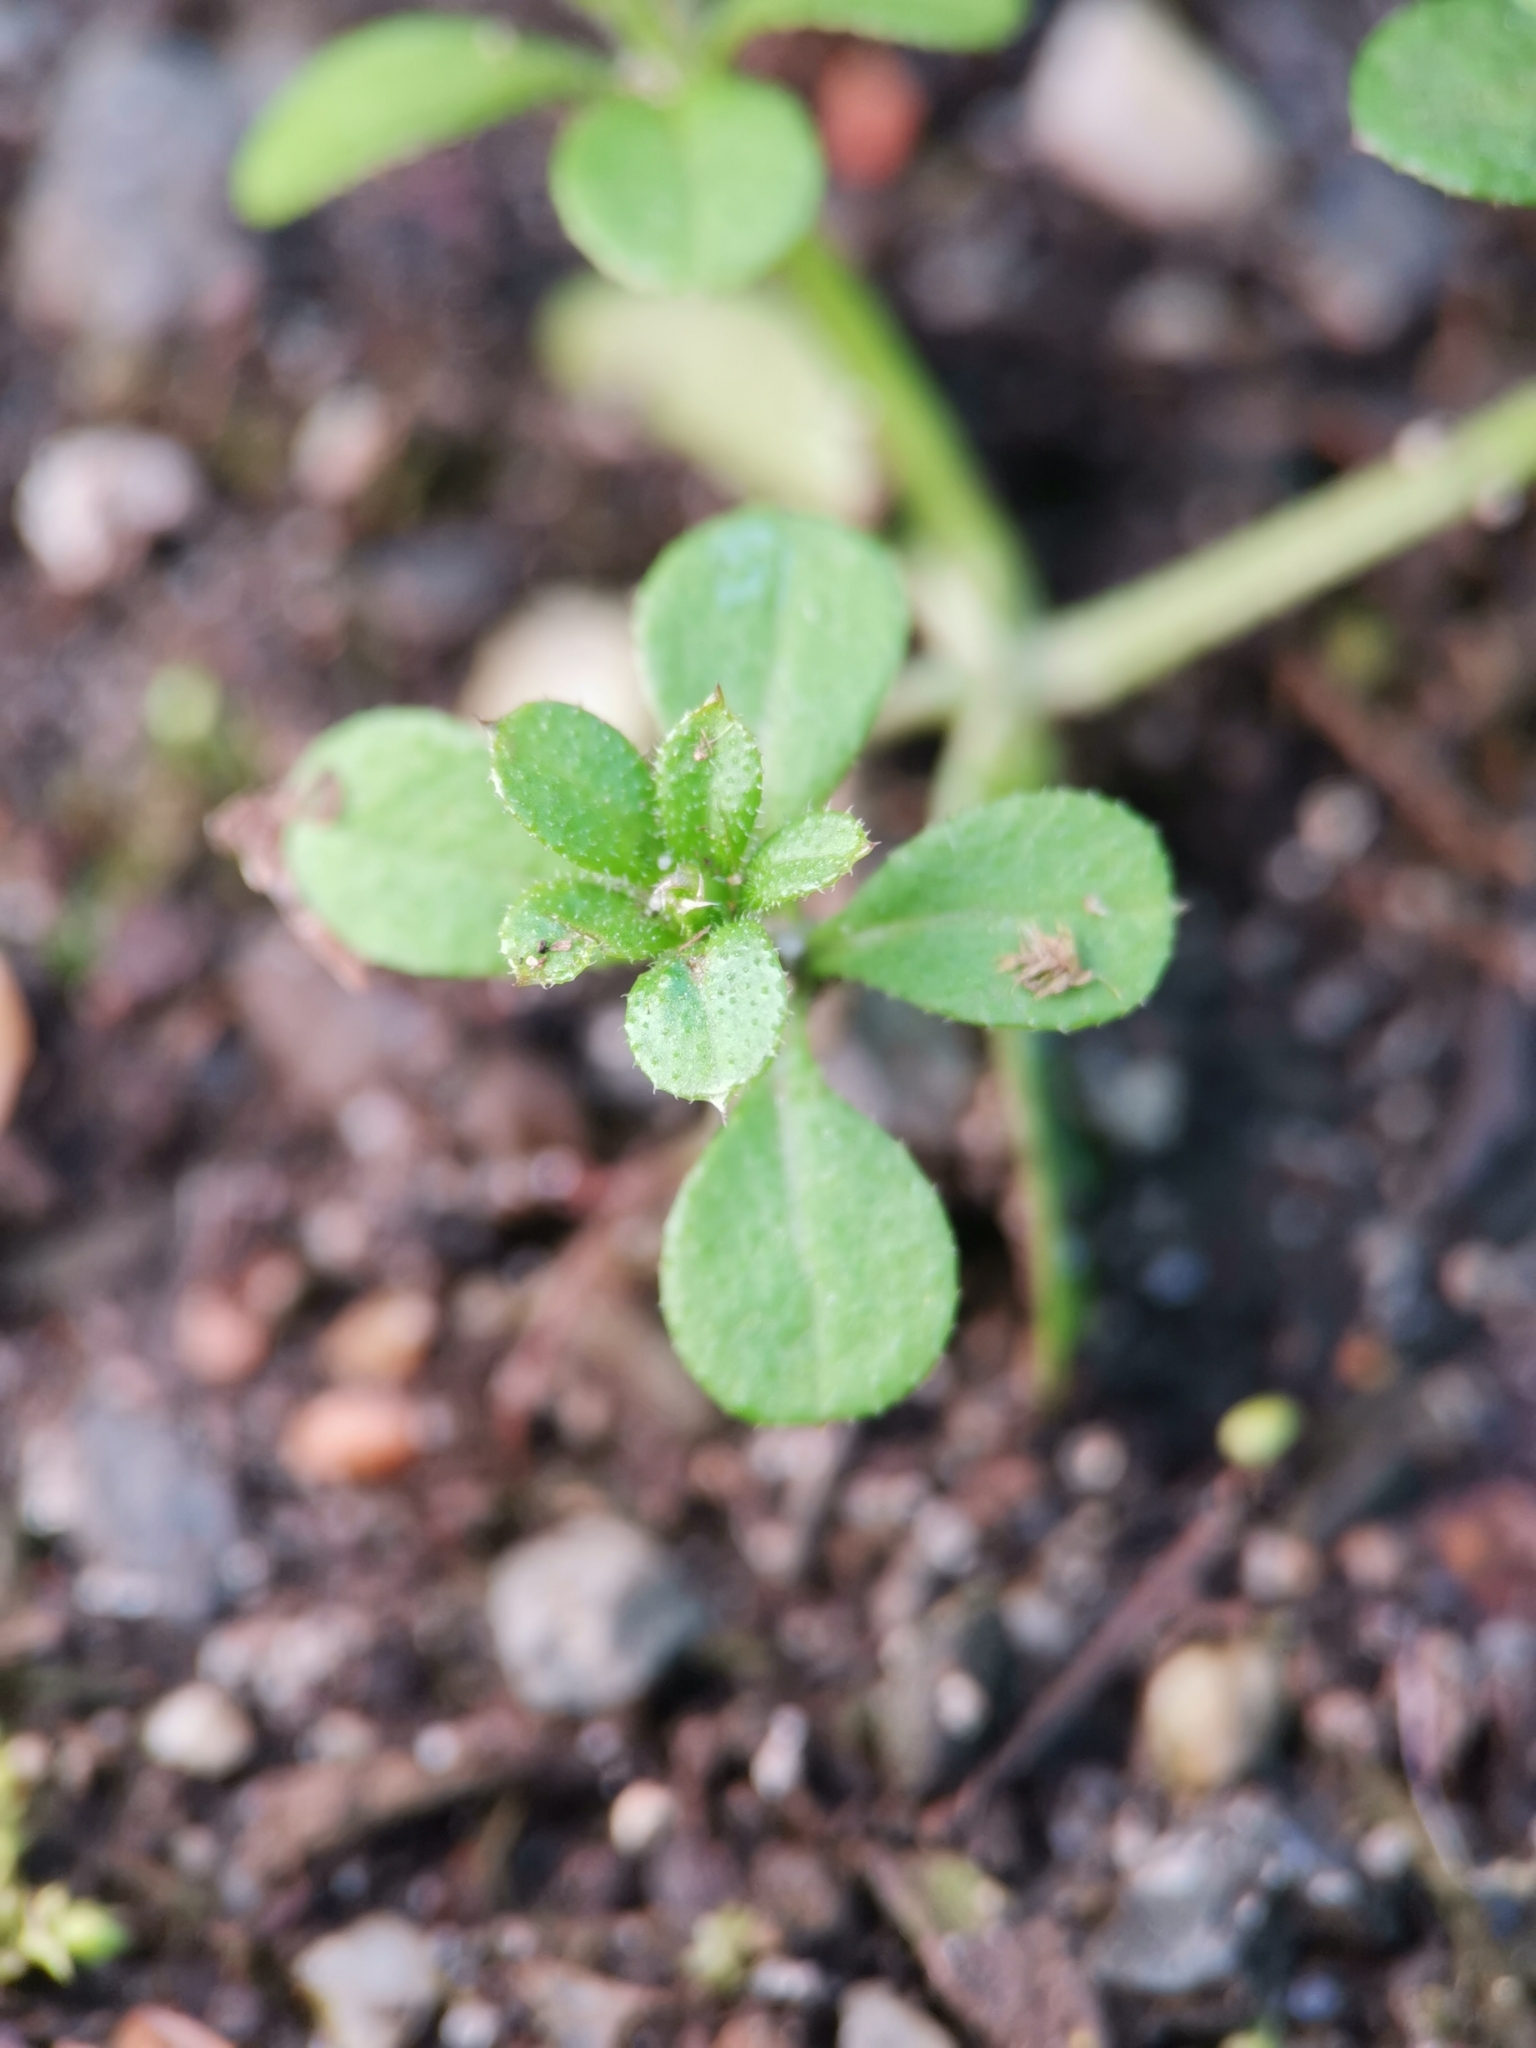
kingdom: Plantae
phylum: Tracheophyta
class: Magnoliopsida
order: Gentianales
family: Rubiaceae
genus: Galium
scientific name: Galium aparine
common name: Cleavers
